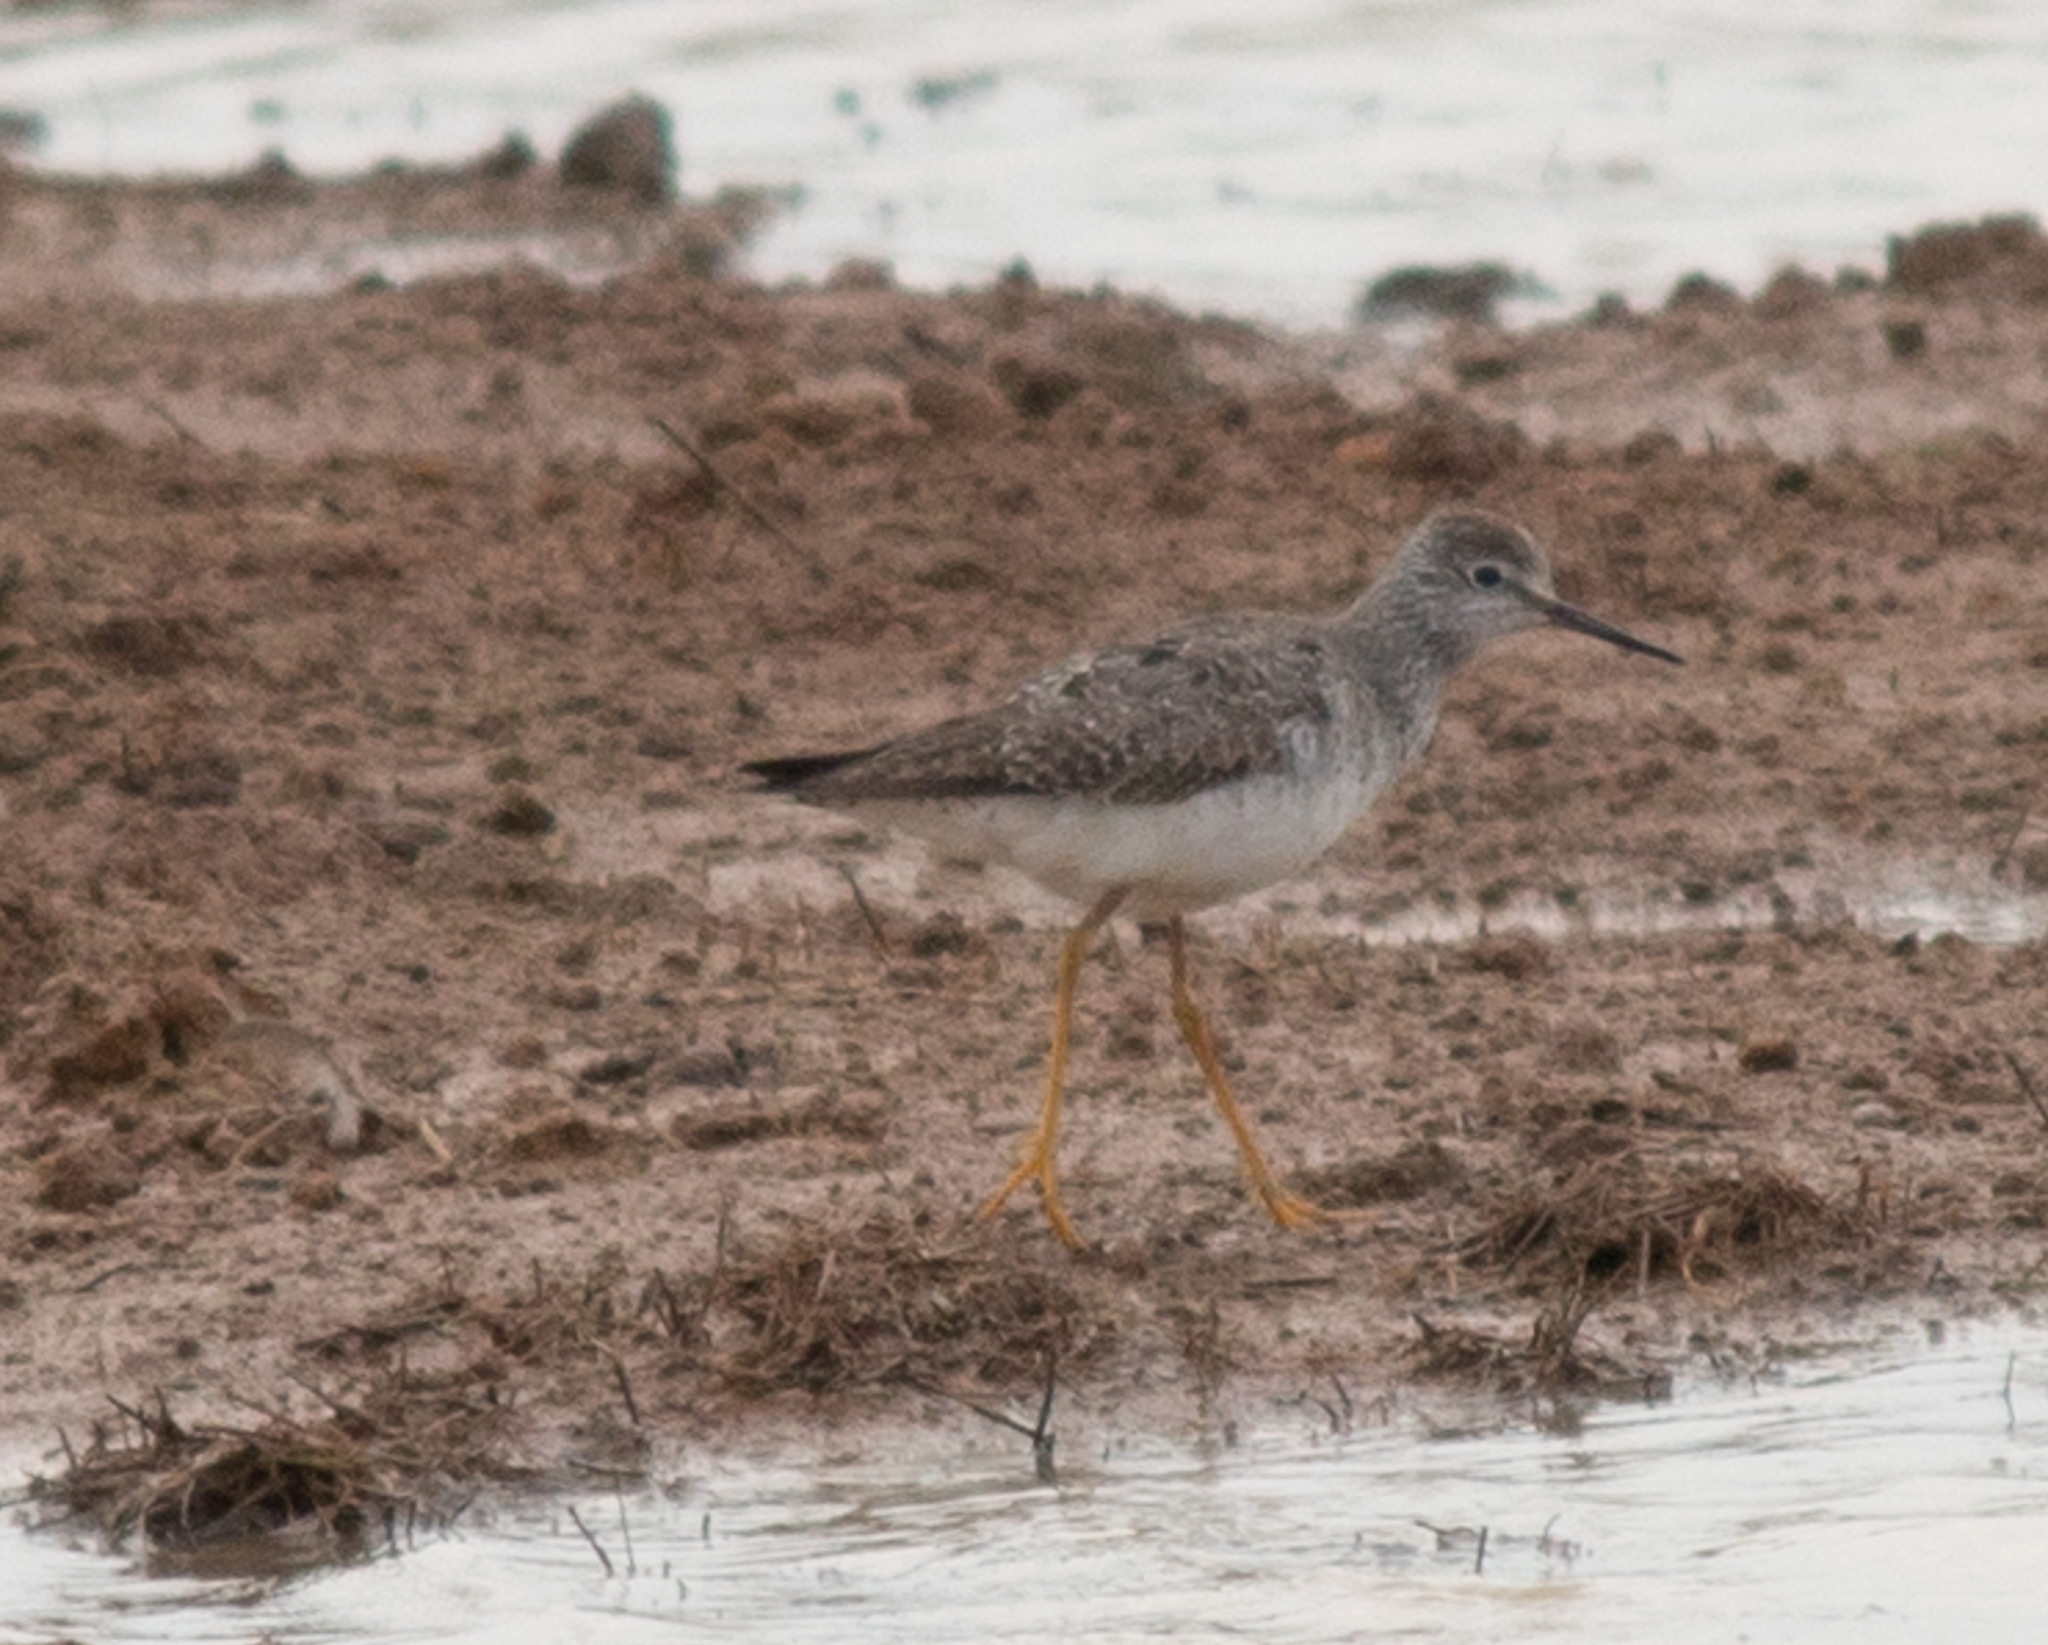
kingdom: Animalia
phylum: Chordata
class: Aves
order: Charadriiformes
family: Scolopacidae
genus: Tringa
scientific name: Tringa flavipes
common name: Lesser yellowlegs
